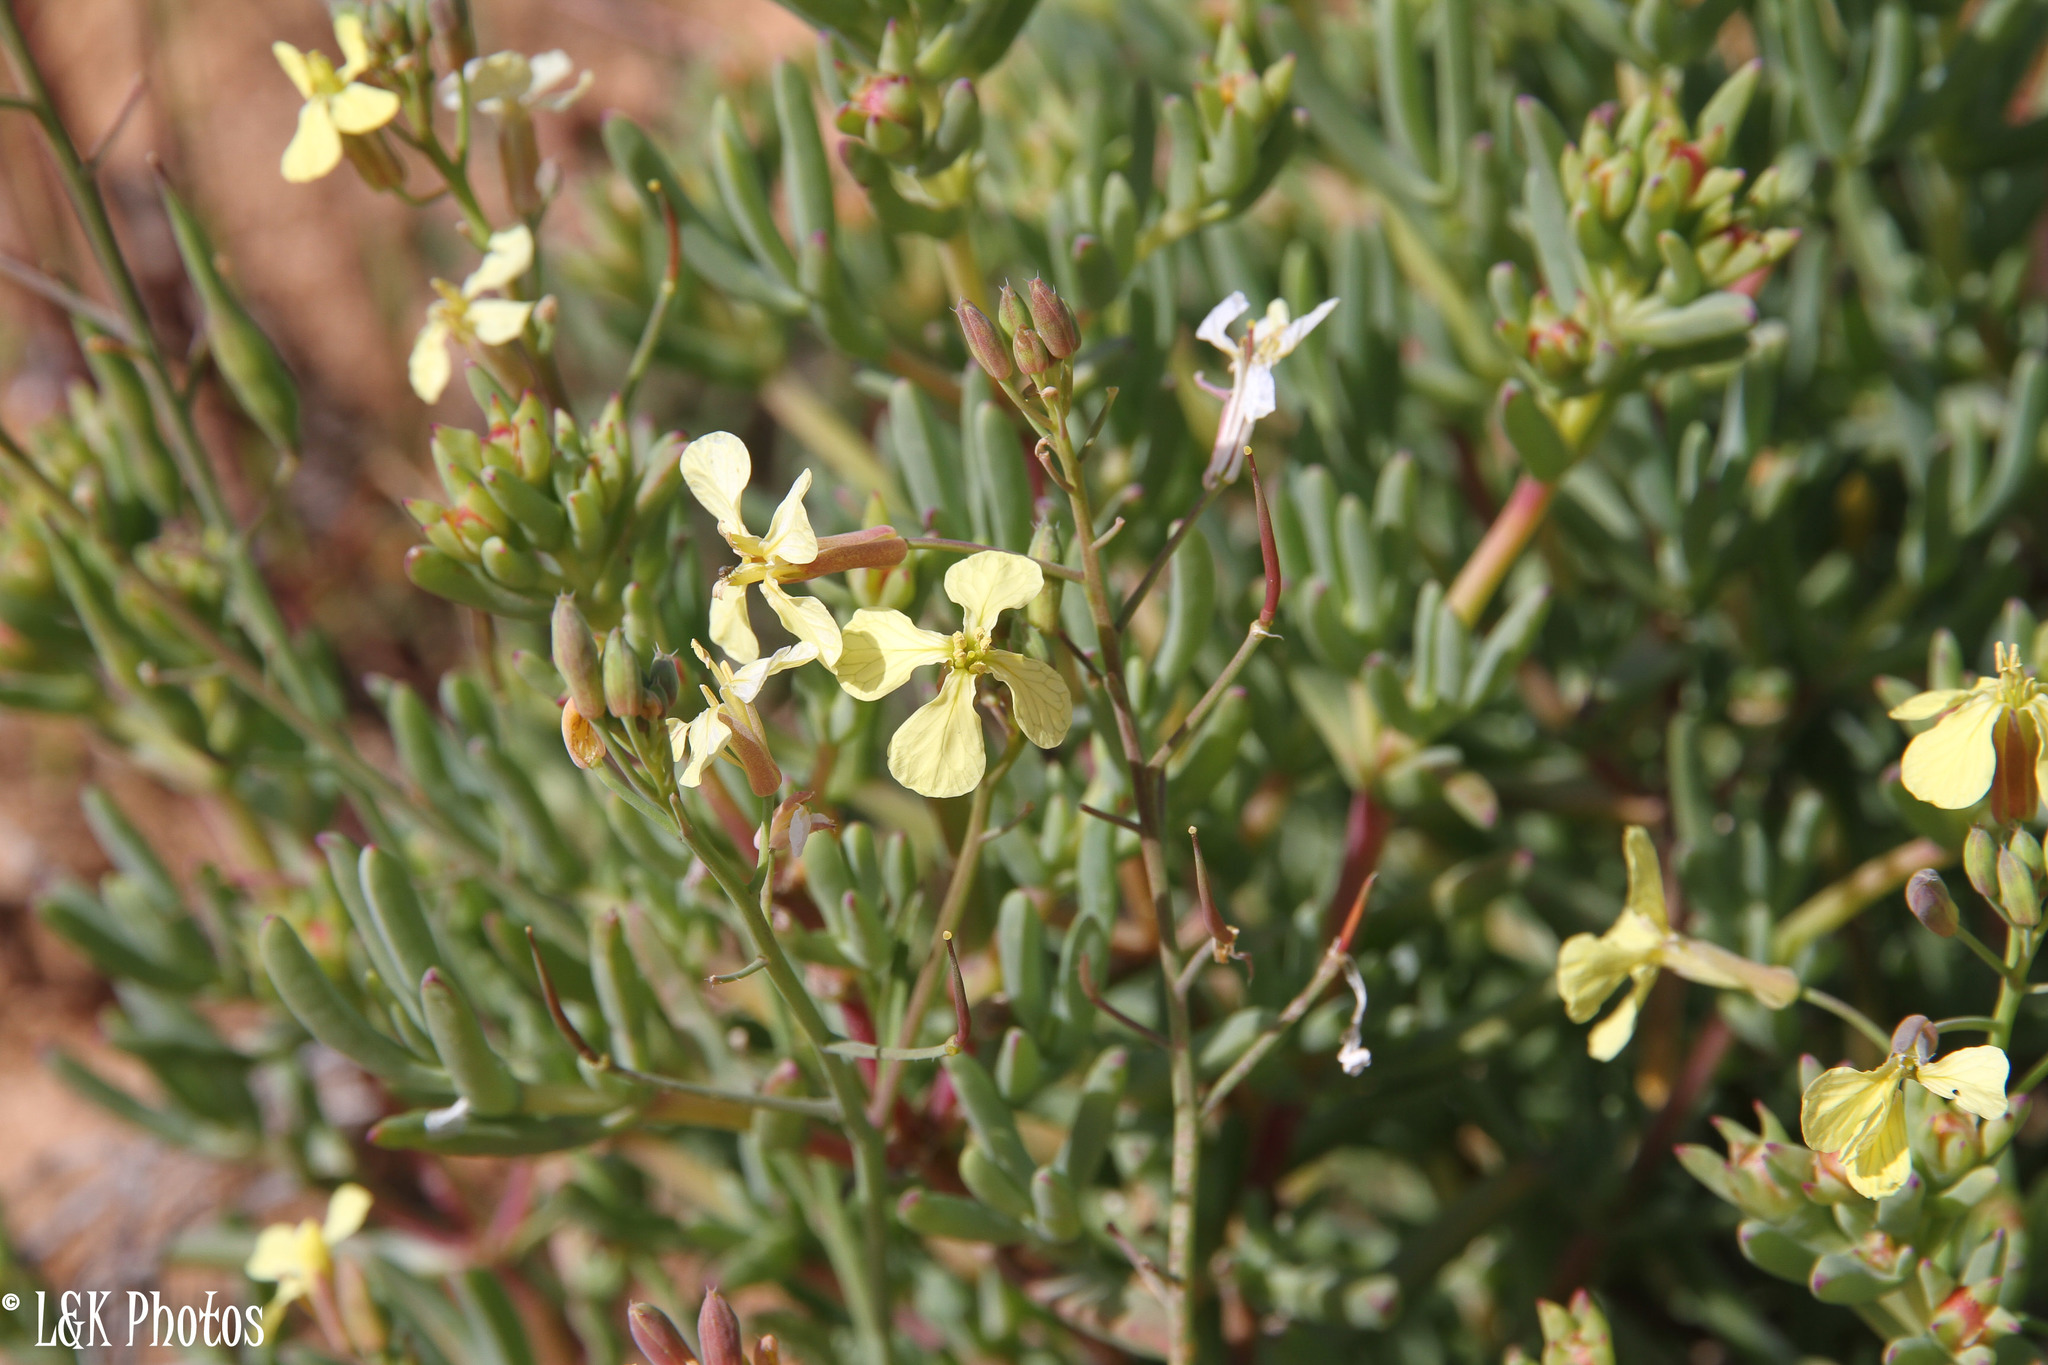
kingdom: Plantae
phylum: Tracheophyta
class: Magnoliopsida
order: Brassicales
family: Brassicaceae
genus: Raphanus
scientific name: Raphanus raphanistrum
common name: Wild radish
